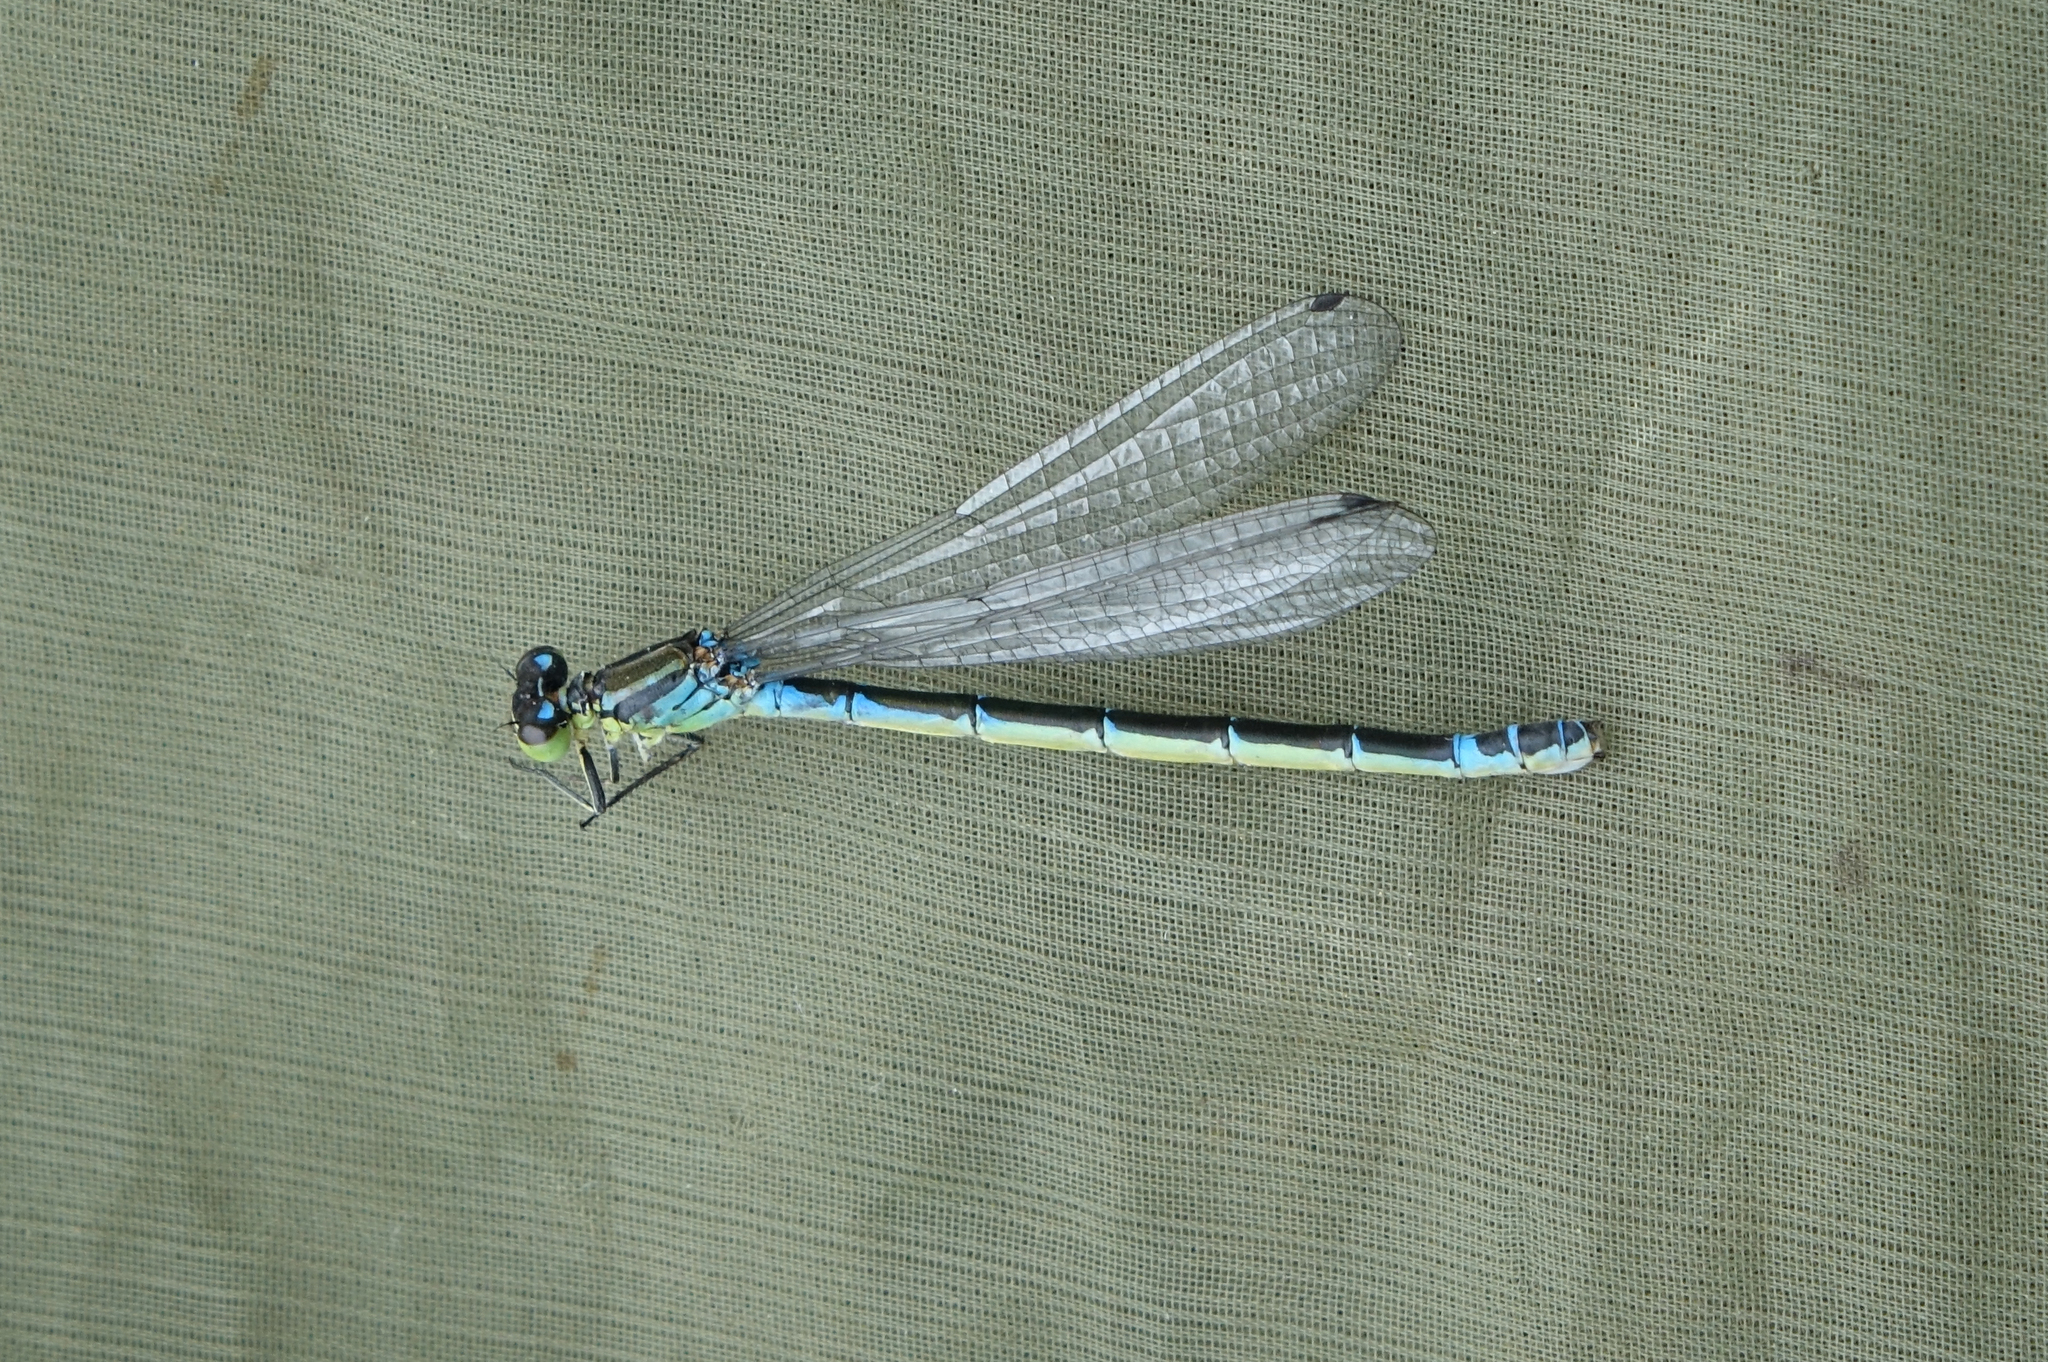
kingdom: Animalia
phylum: Arthropoda
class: Insecta
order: Odonata
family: Coenagrionidae
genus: Coenagrion
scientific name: Coenagrion lunulatum
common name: Irish damselfly
